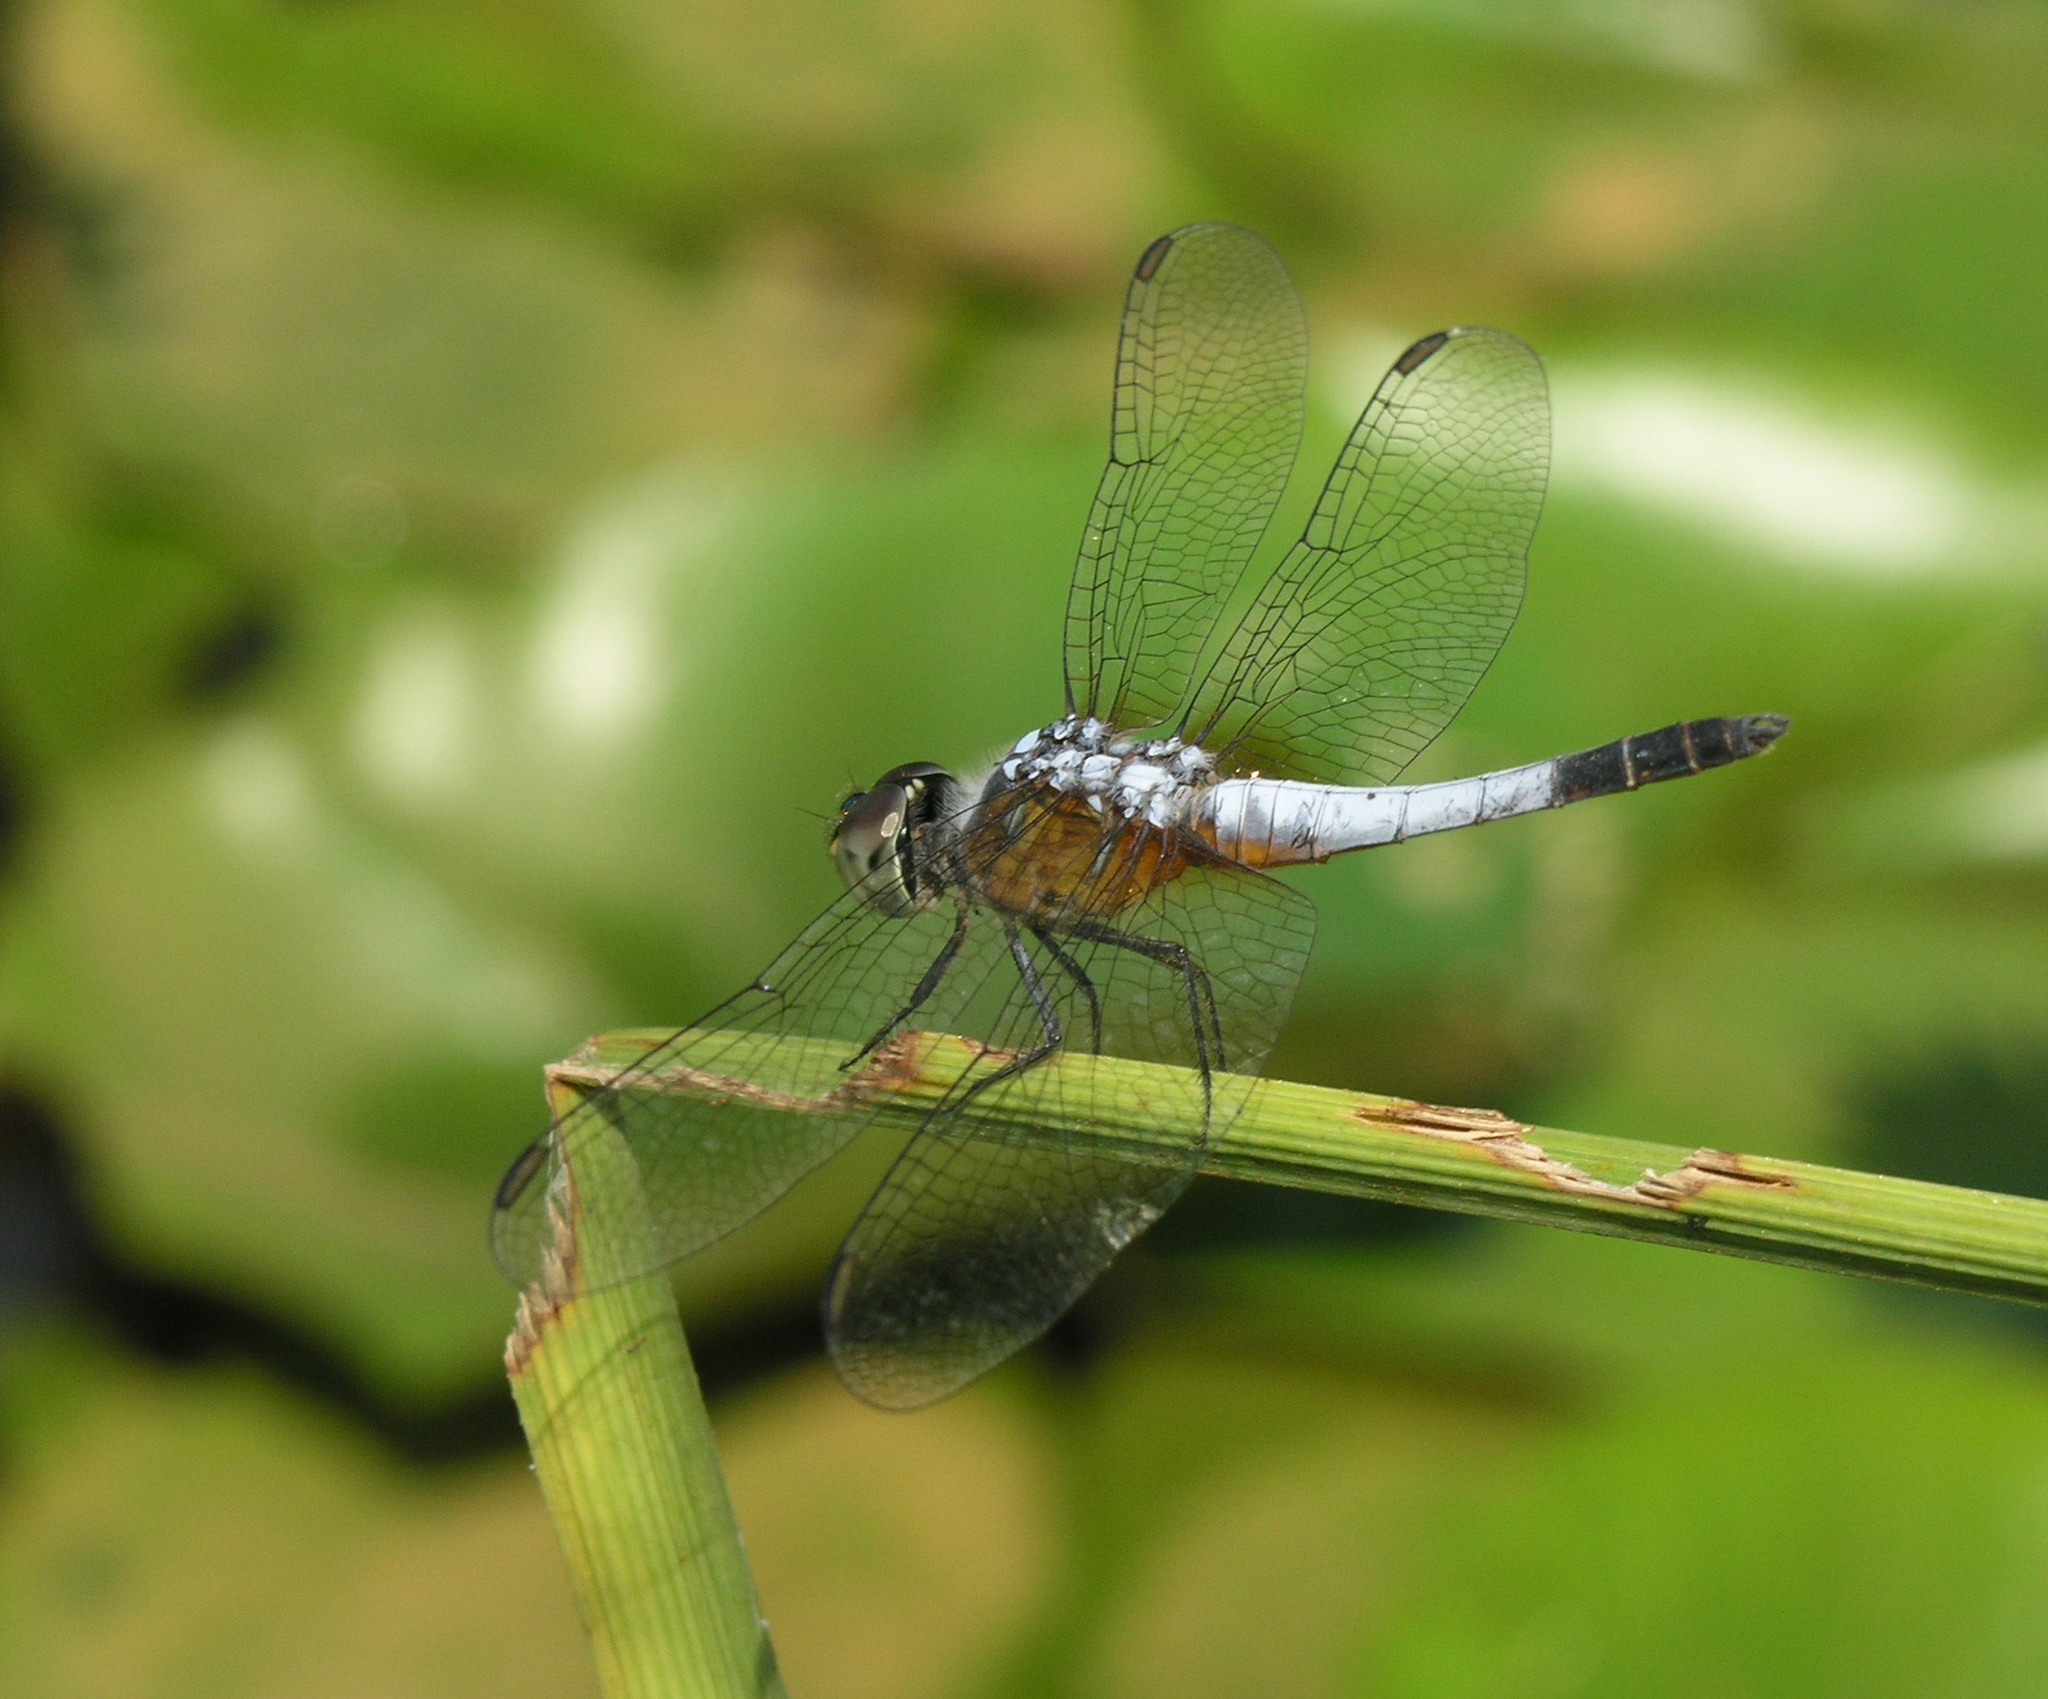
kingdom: Animalia
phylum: Arthropoda
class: Insecta
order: Odonata
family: Libellulidae
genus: Brachydiplax
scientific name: Brachydiplax chalybea
